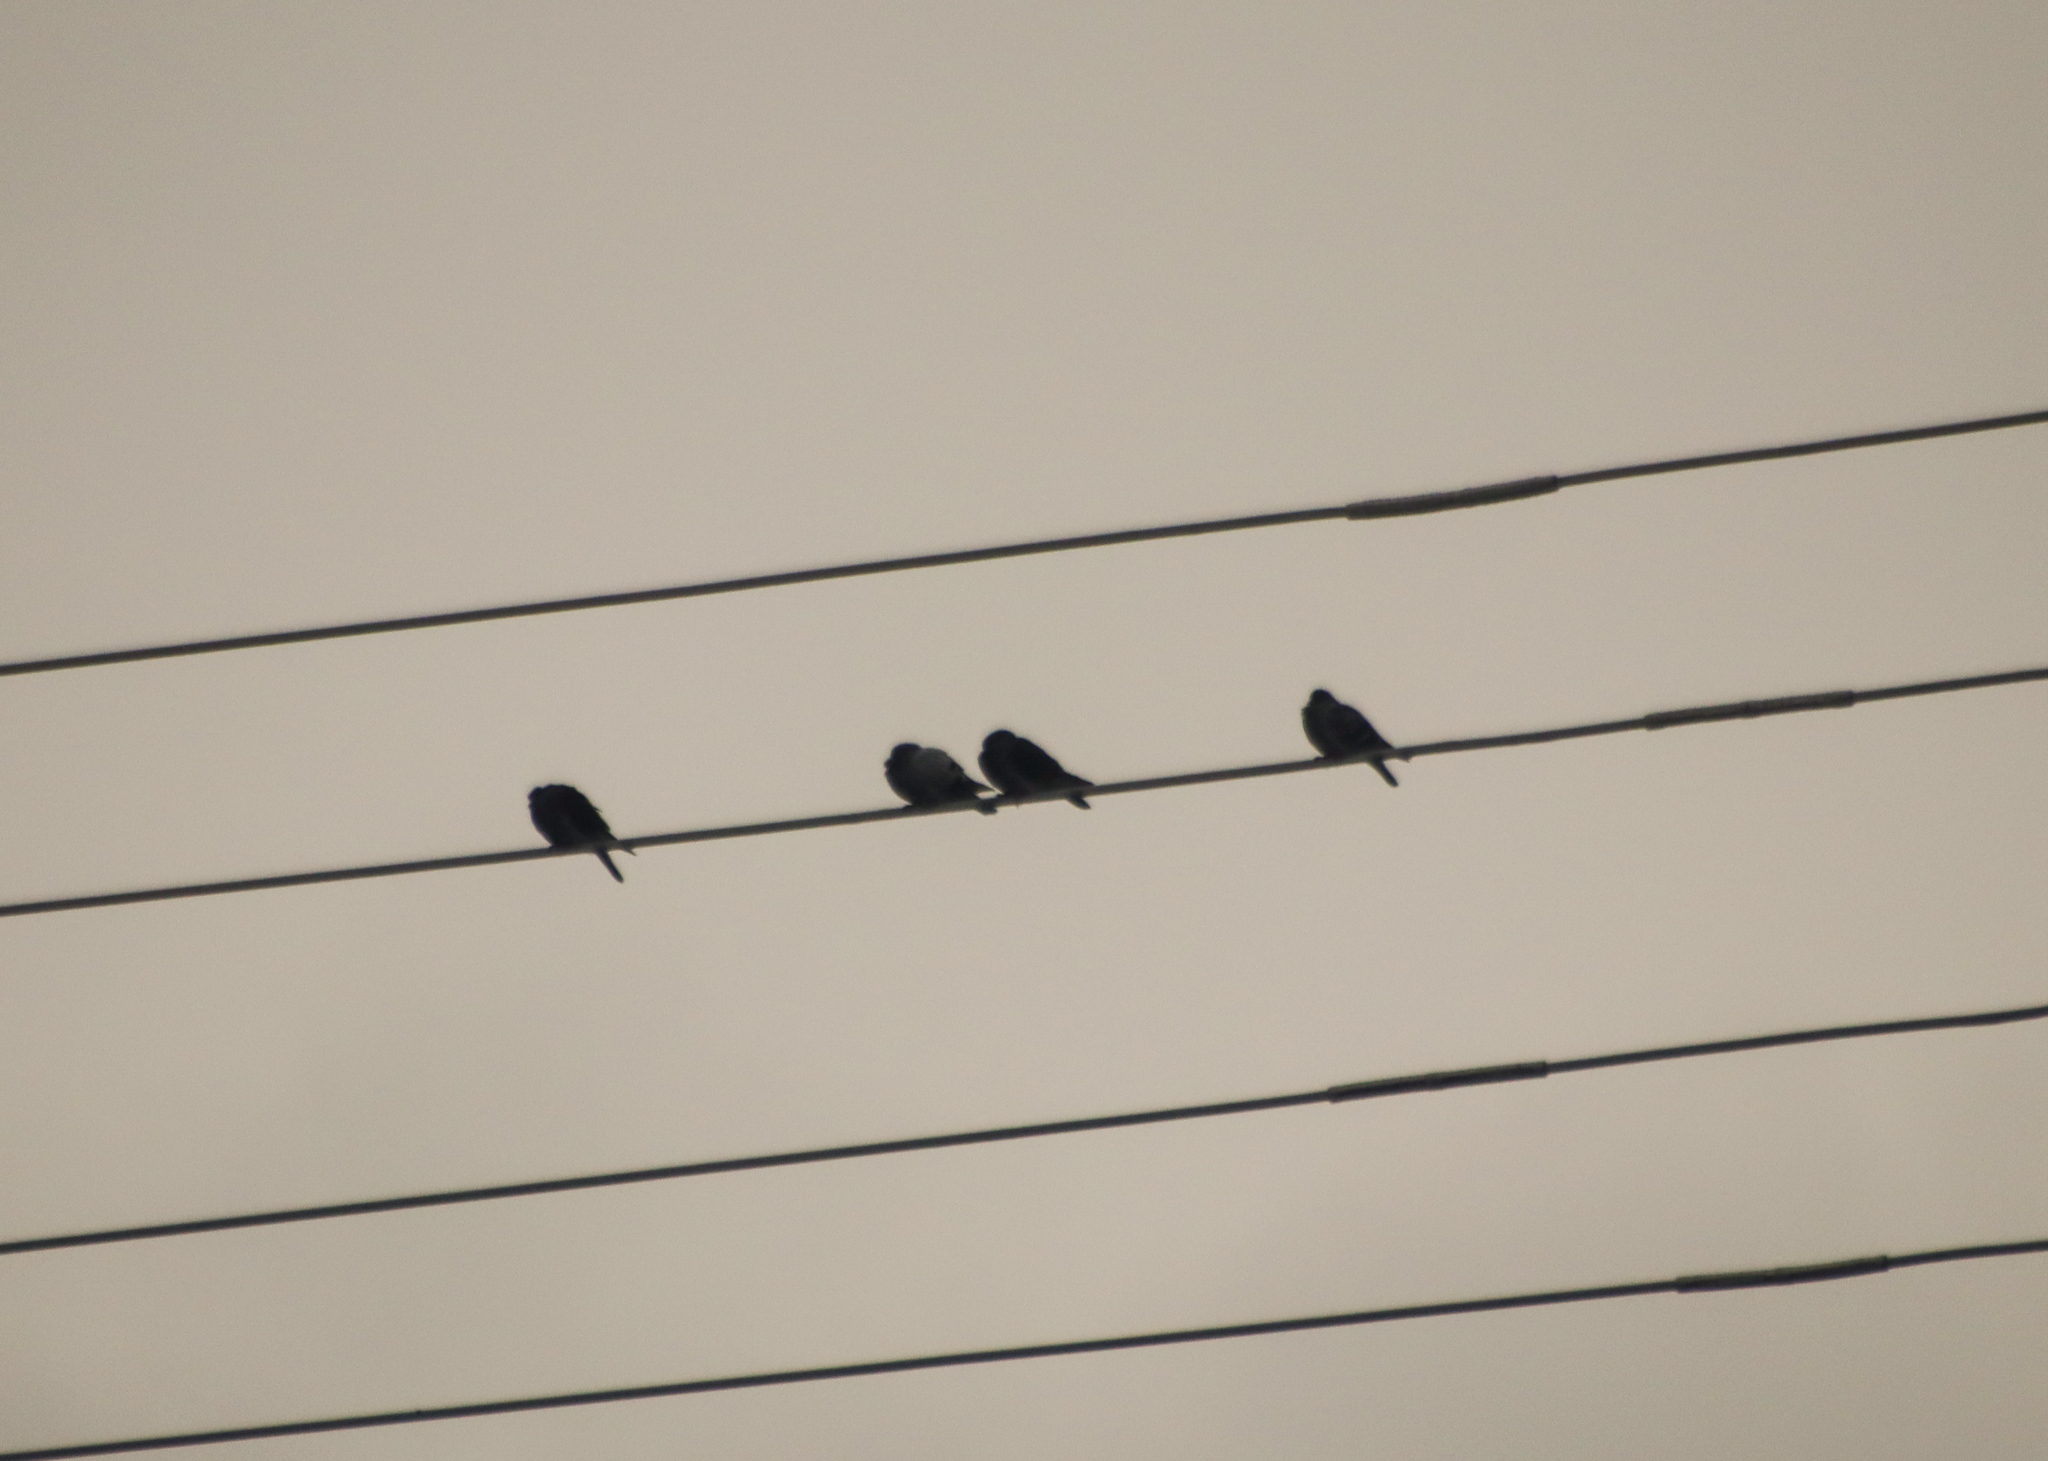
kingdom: Animalia
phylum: Chordata
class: Aves
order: Columbiformes
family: Columbidae
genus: Columba
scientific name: Columba livia
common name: Rock pigeon
